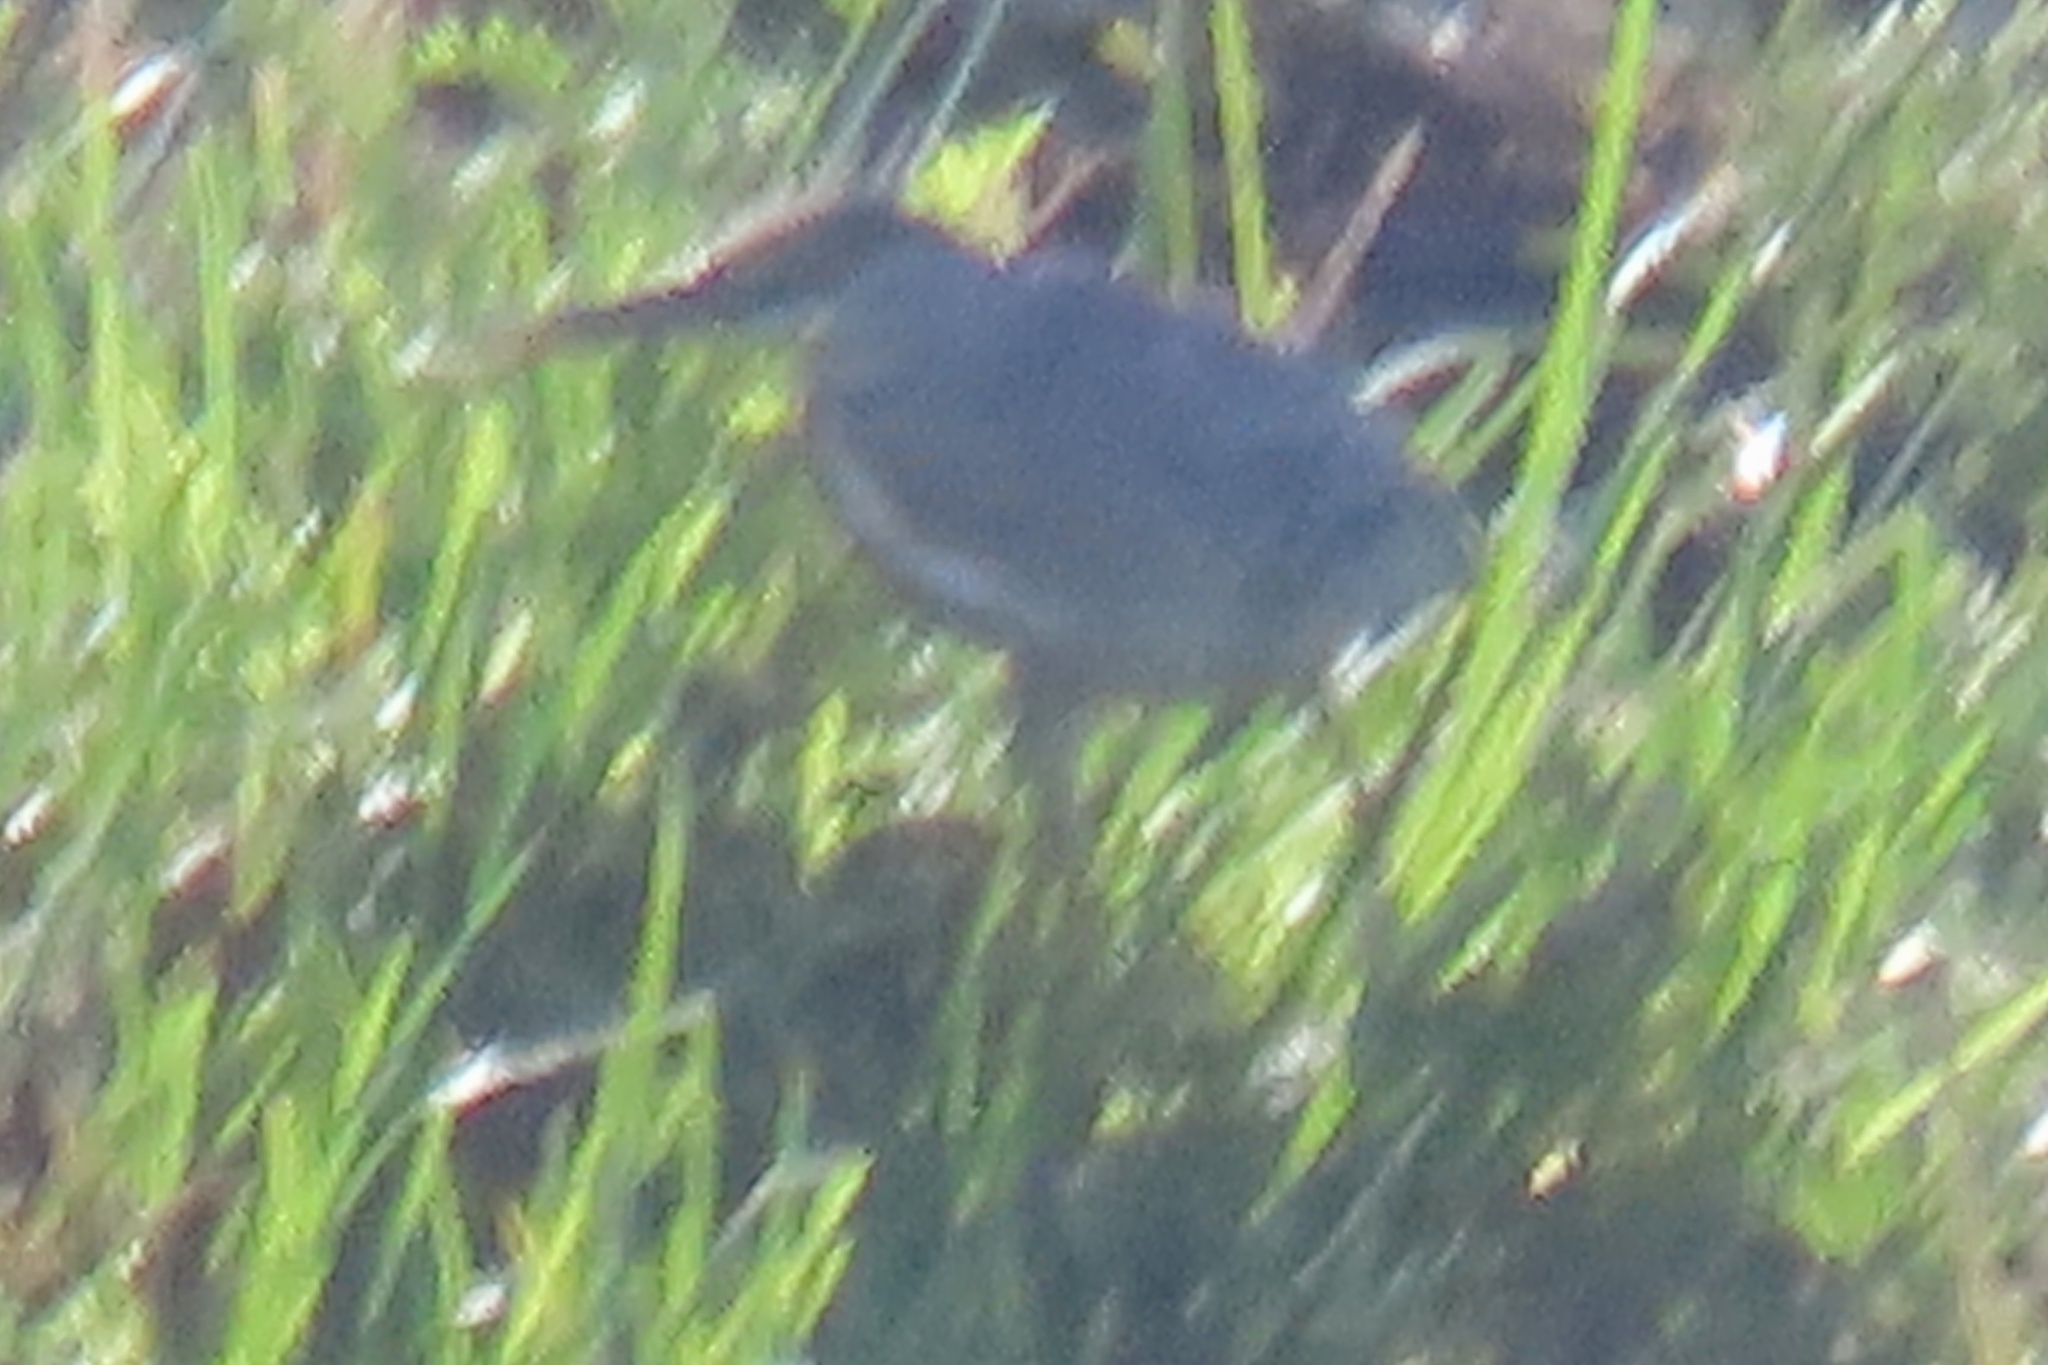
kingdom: Animalia
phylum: Chordata
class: Aves
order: Pelecaniformes
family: Ardeidae
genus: Butorides
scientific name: Butorides striata
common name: Striated heron
